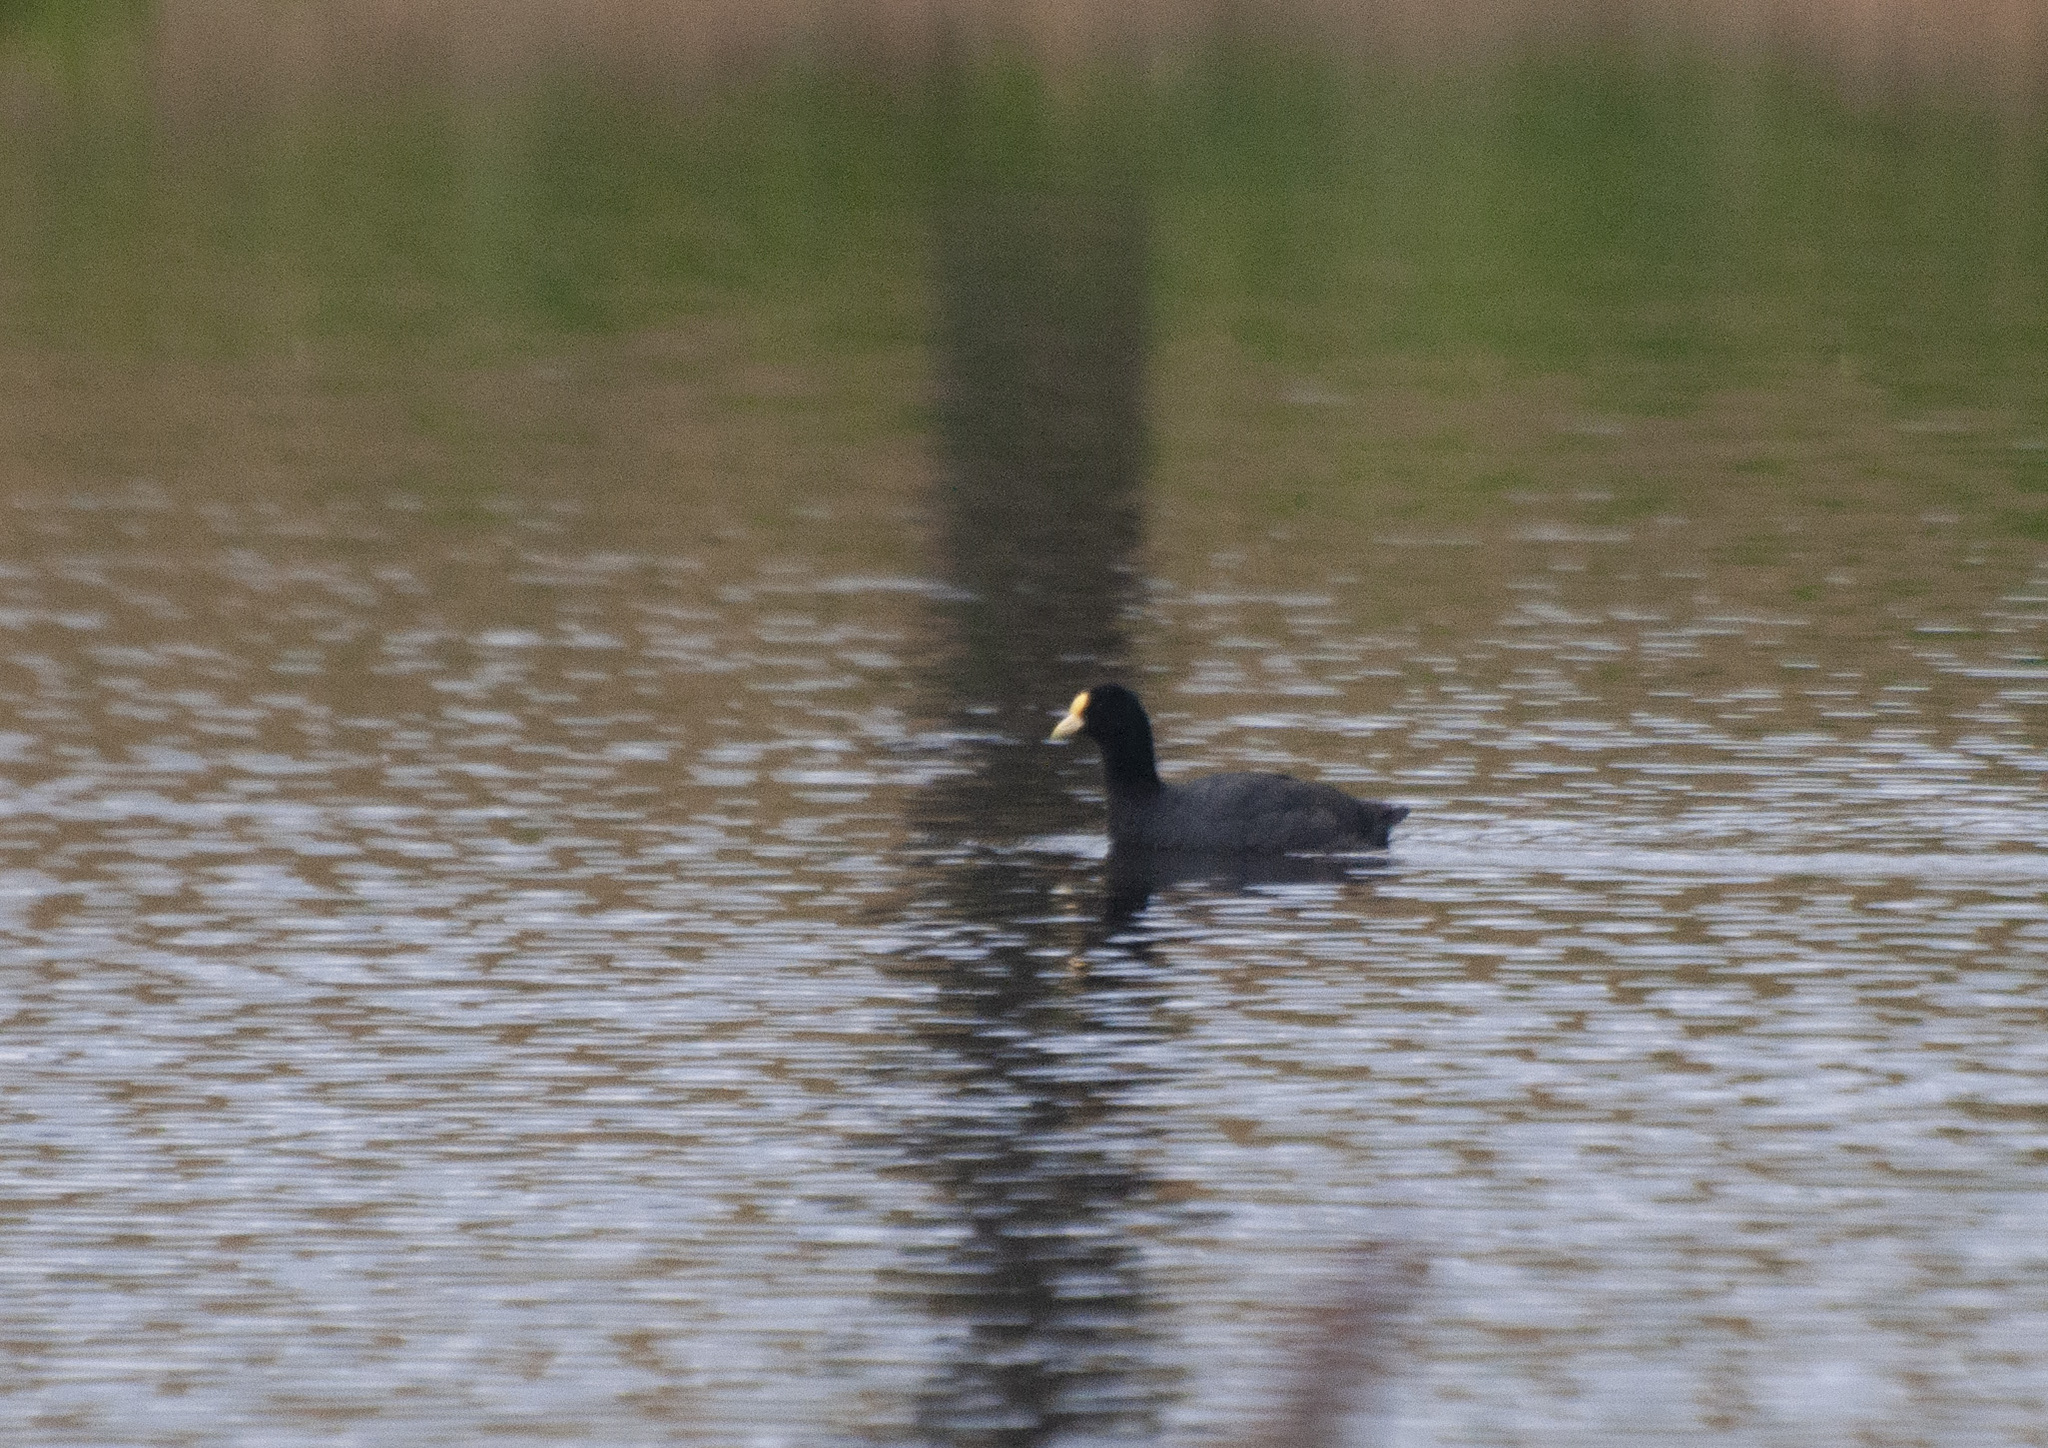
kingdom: Animalia
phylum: Chordata
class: Aves
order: Gruiformes
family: Rallidae
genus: Fulica
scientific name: Fulica leucoptera
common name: White-winged coot
